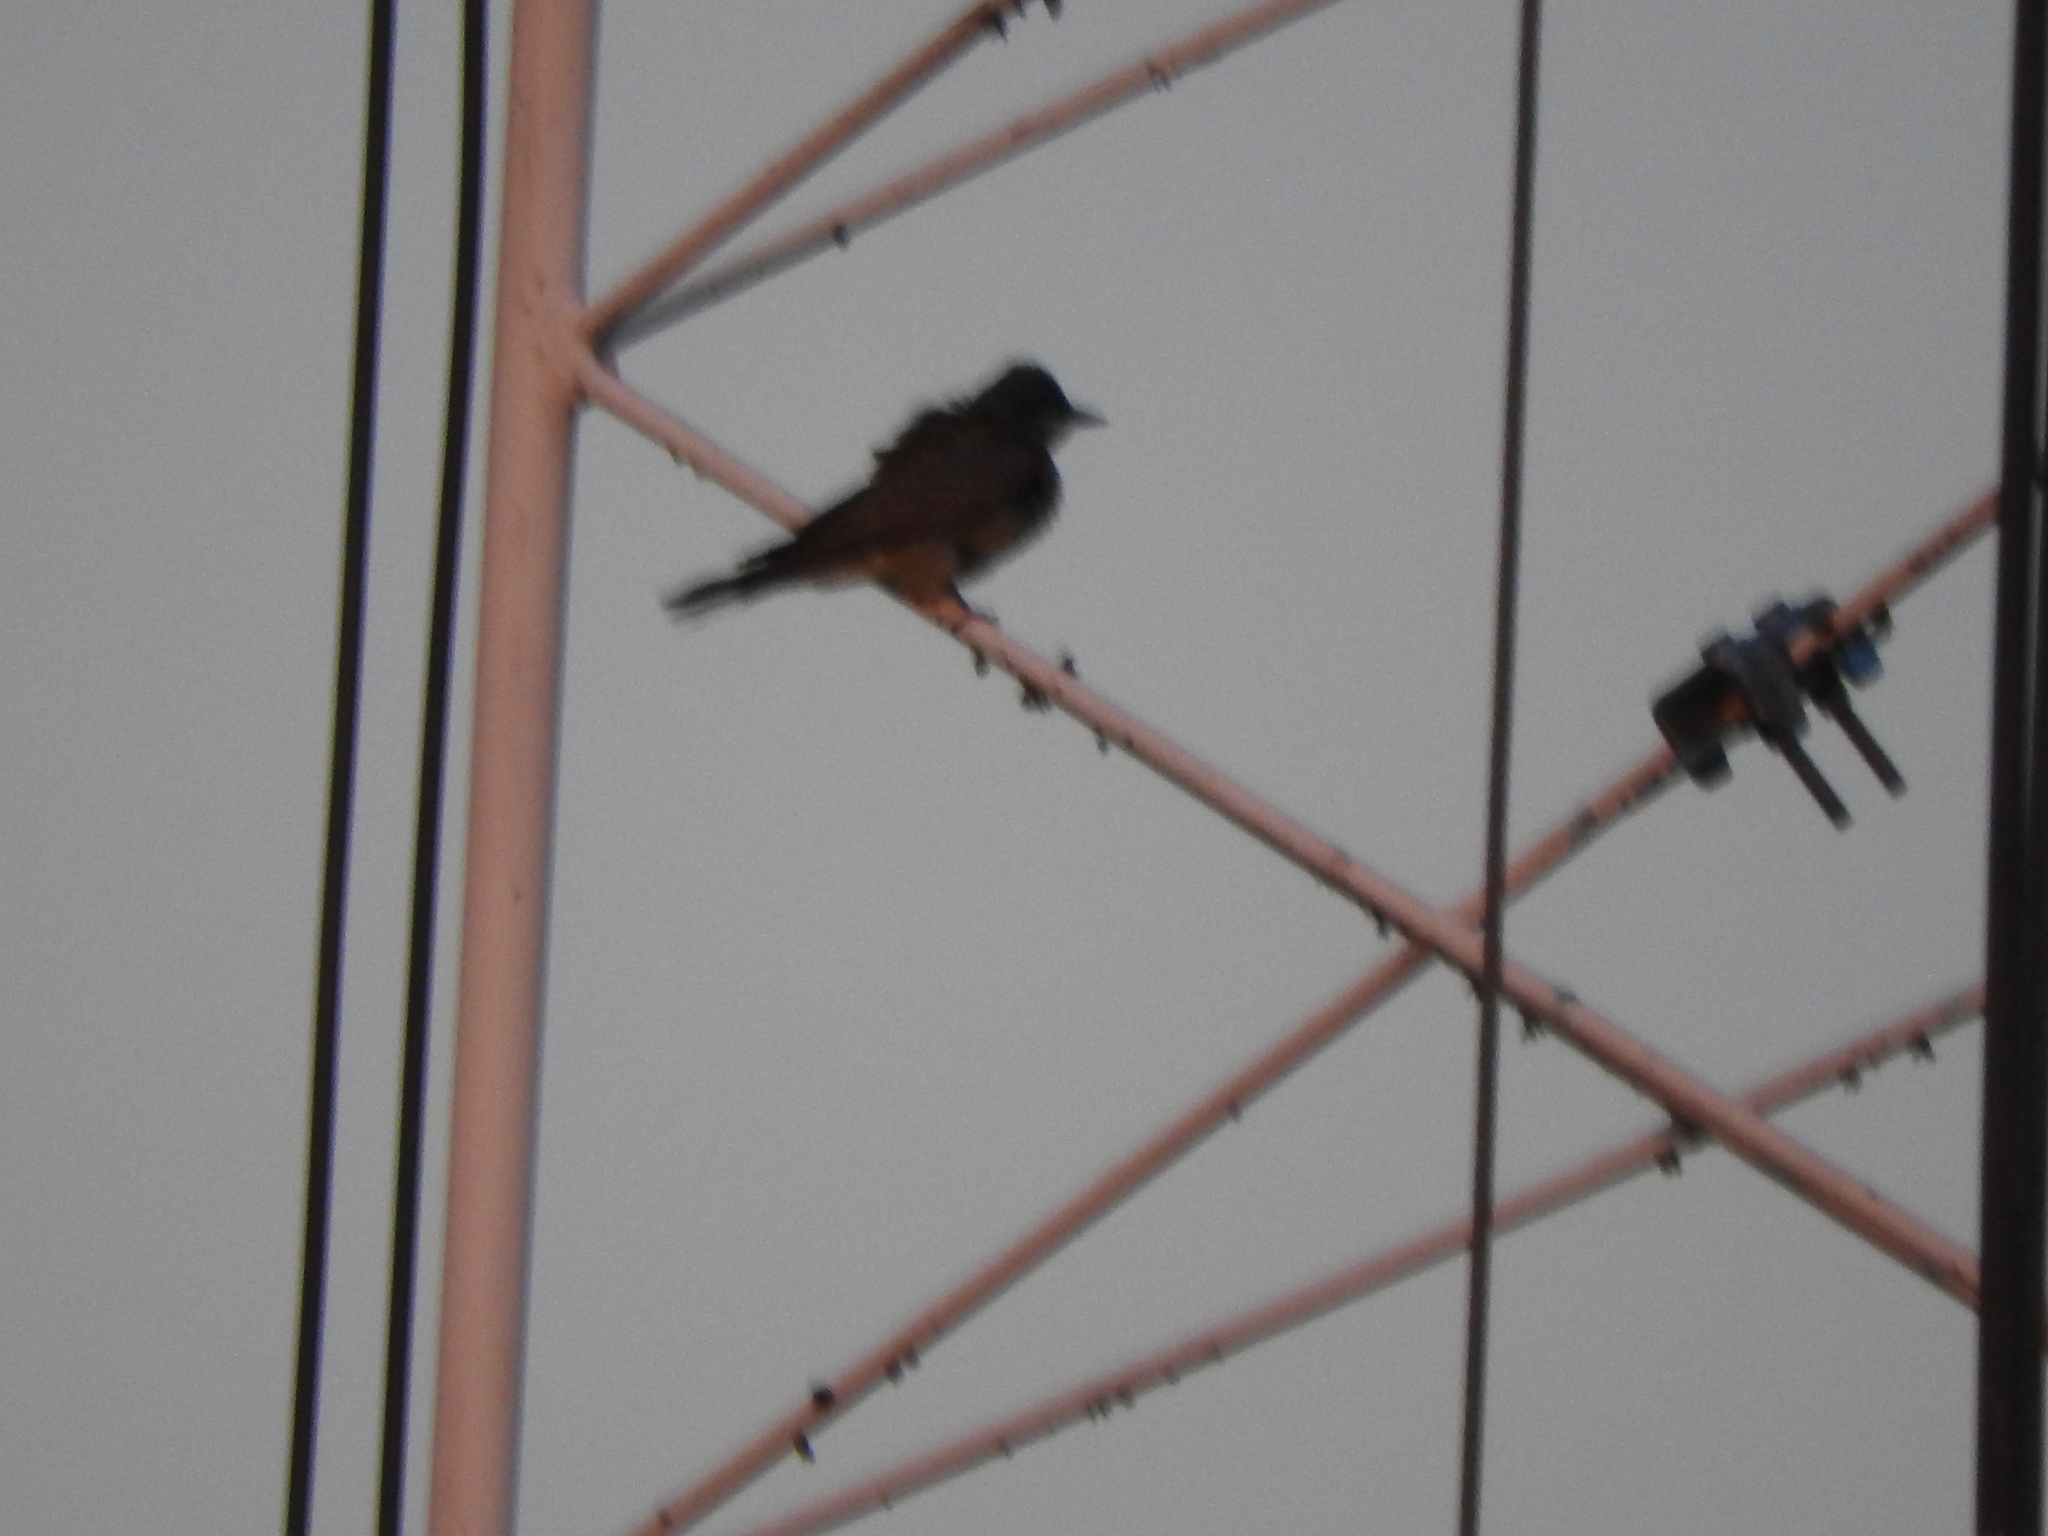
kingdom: Animalia
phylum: Chordata
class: Aves
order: Passeriformes
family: Tyrannidae
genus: Tyrannus
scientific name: Tyrannus vociferans
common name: Cassin's kingbird
